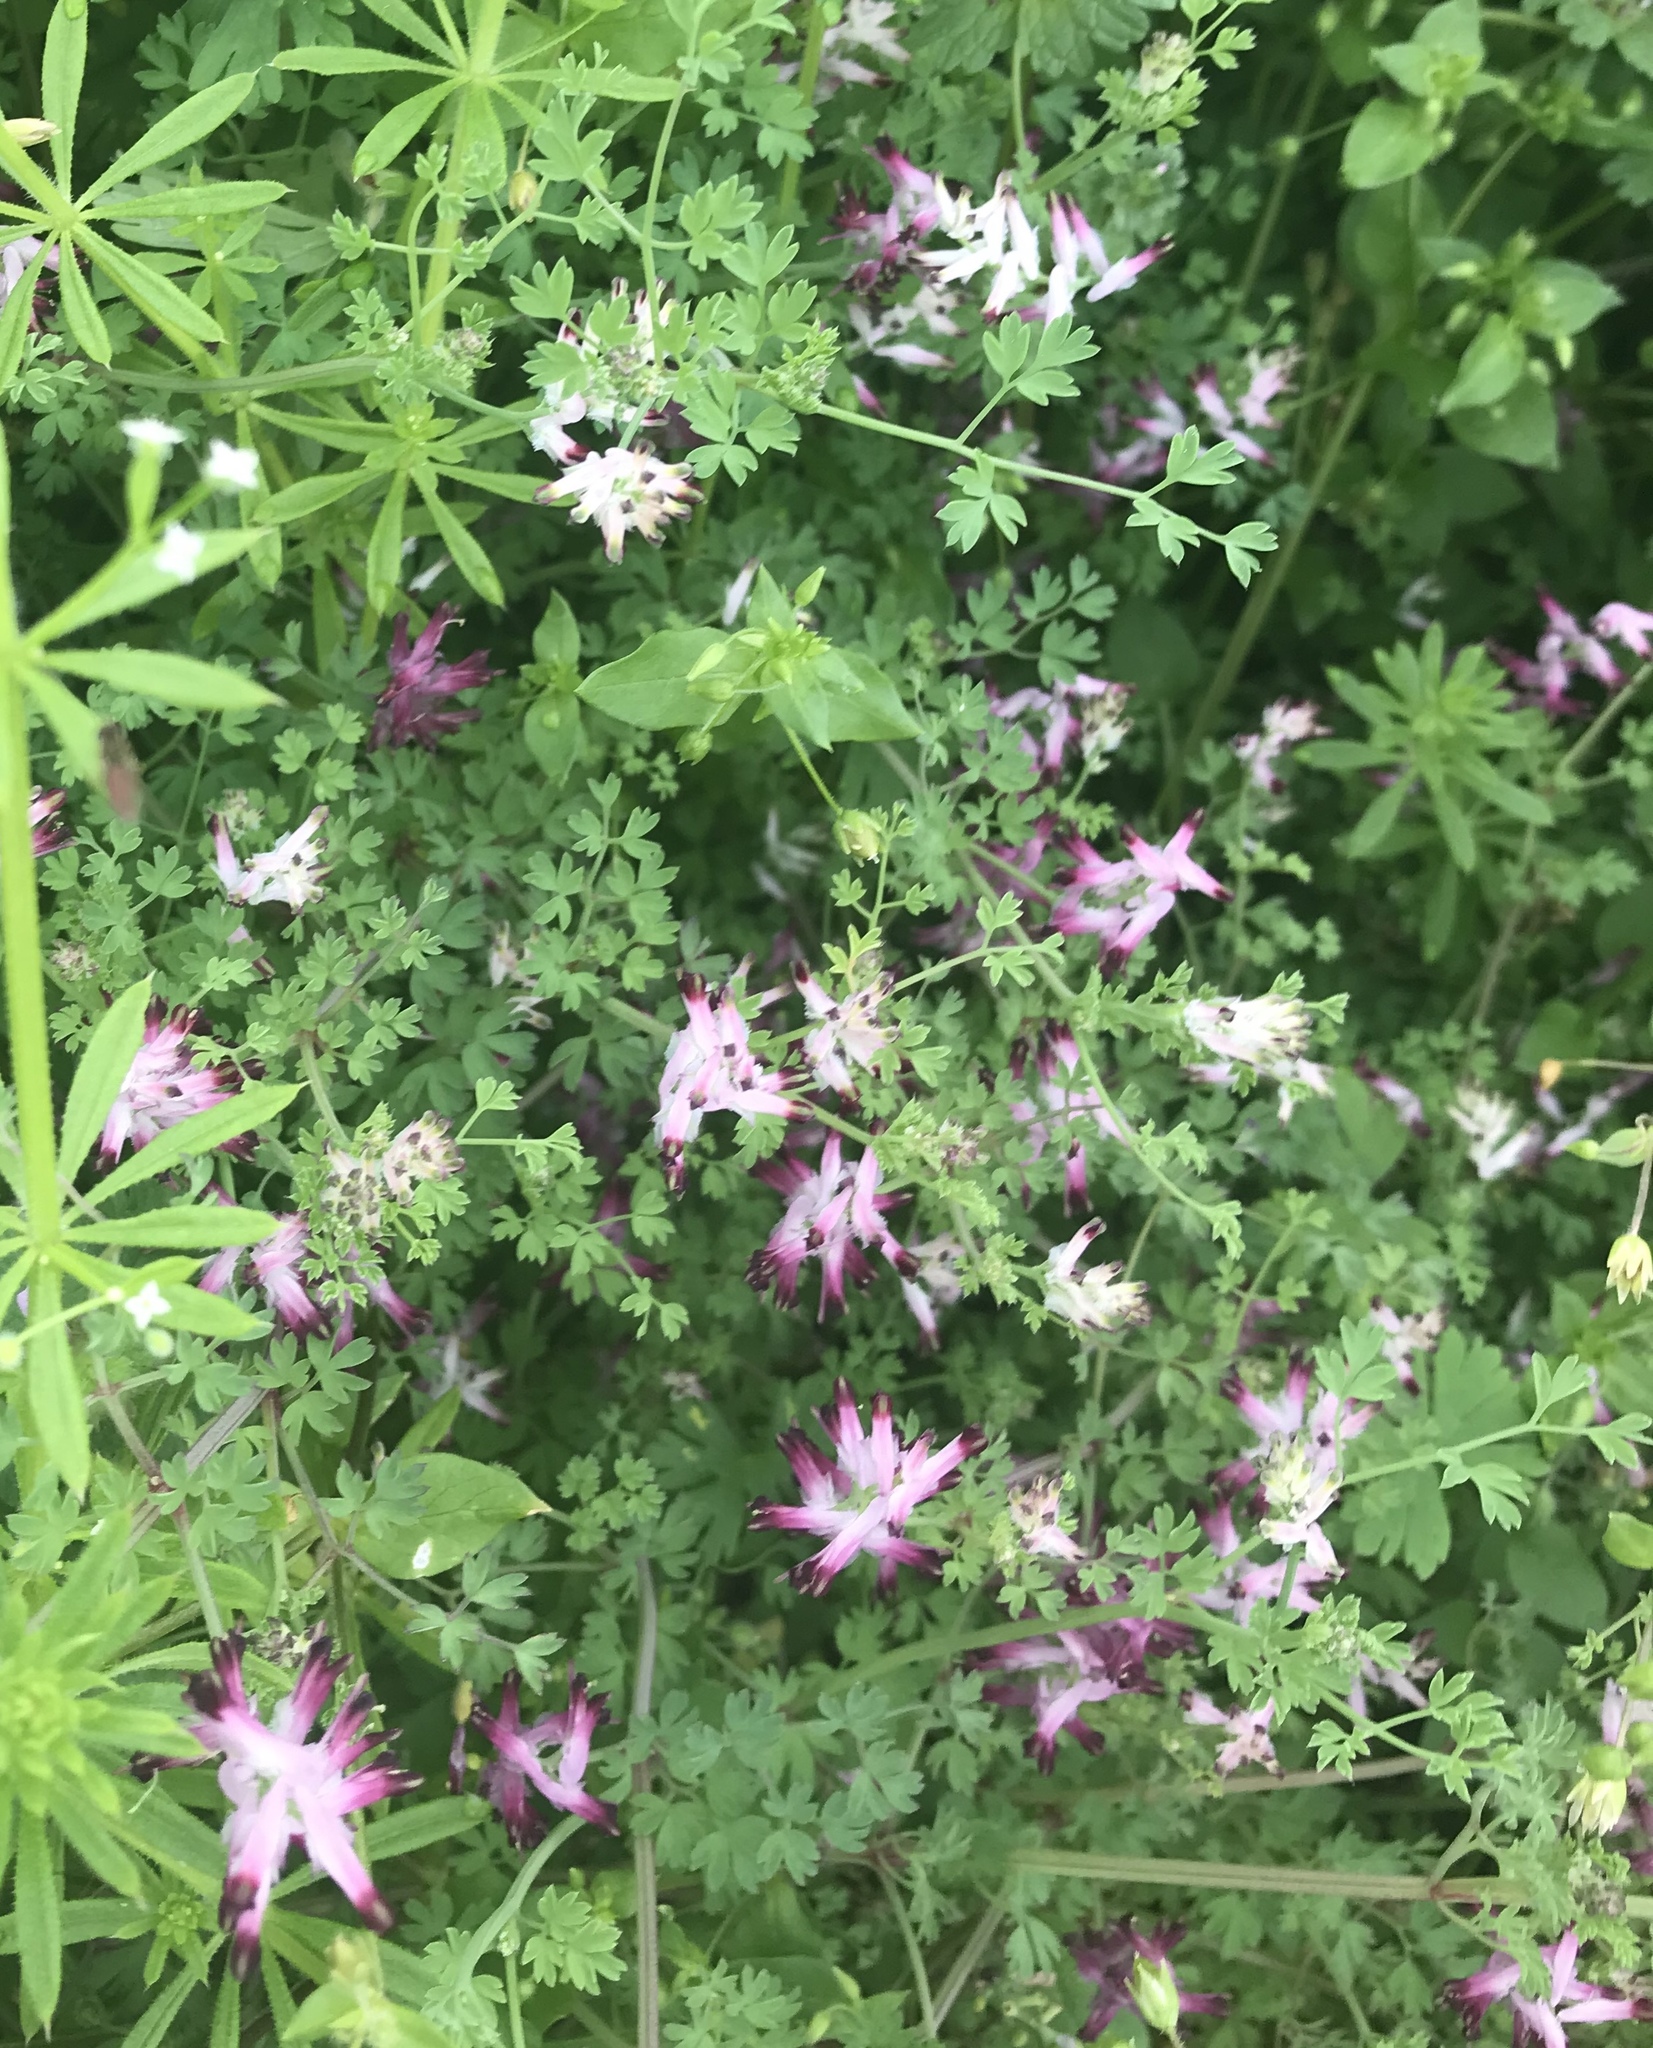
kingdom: Plantae
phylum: Tracheophyta
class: Magnoliopsida
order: Ranunculales
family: Papaveraceae
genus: Fumaria
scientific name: Fumaria muralis
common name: Common ramping-fumitory
